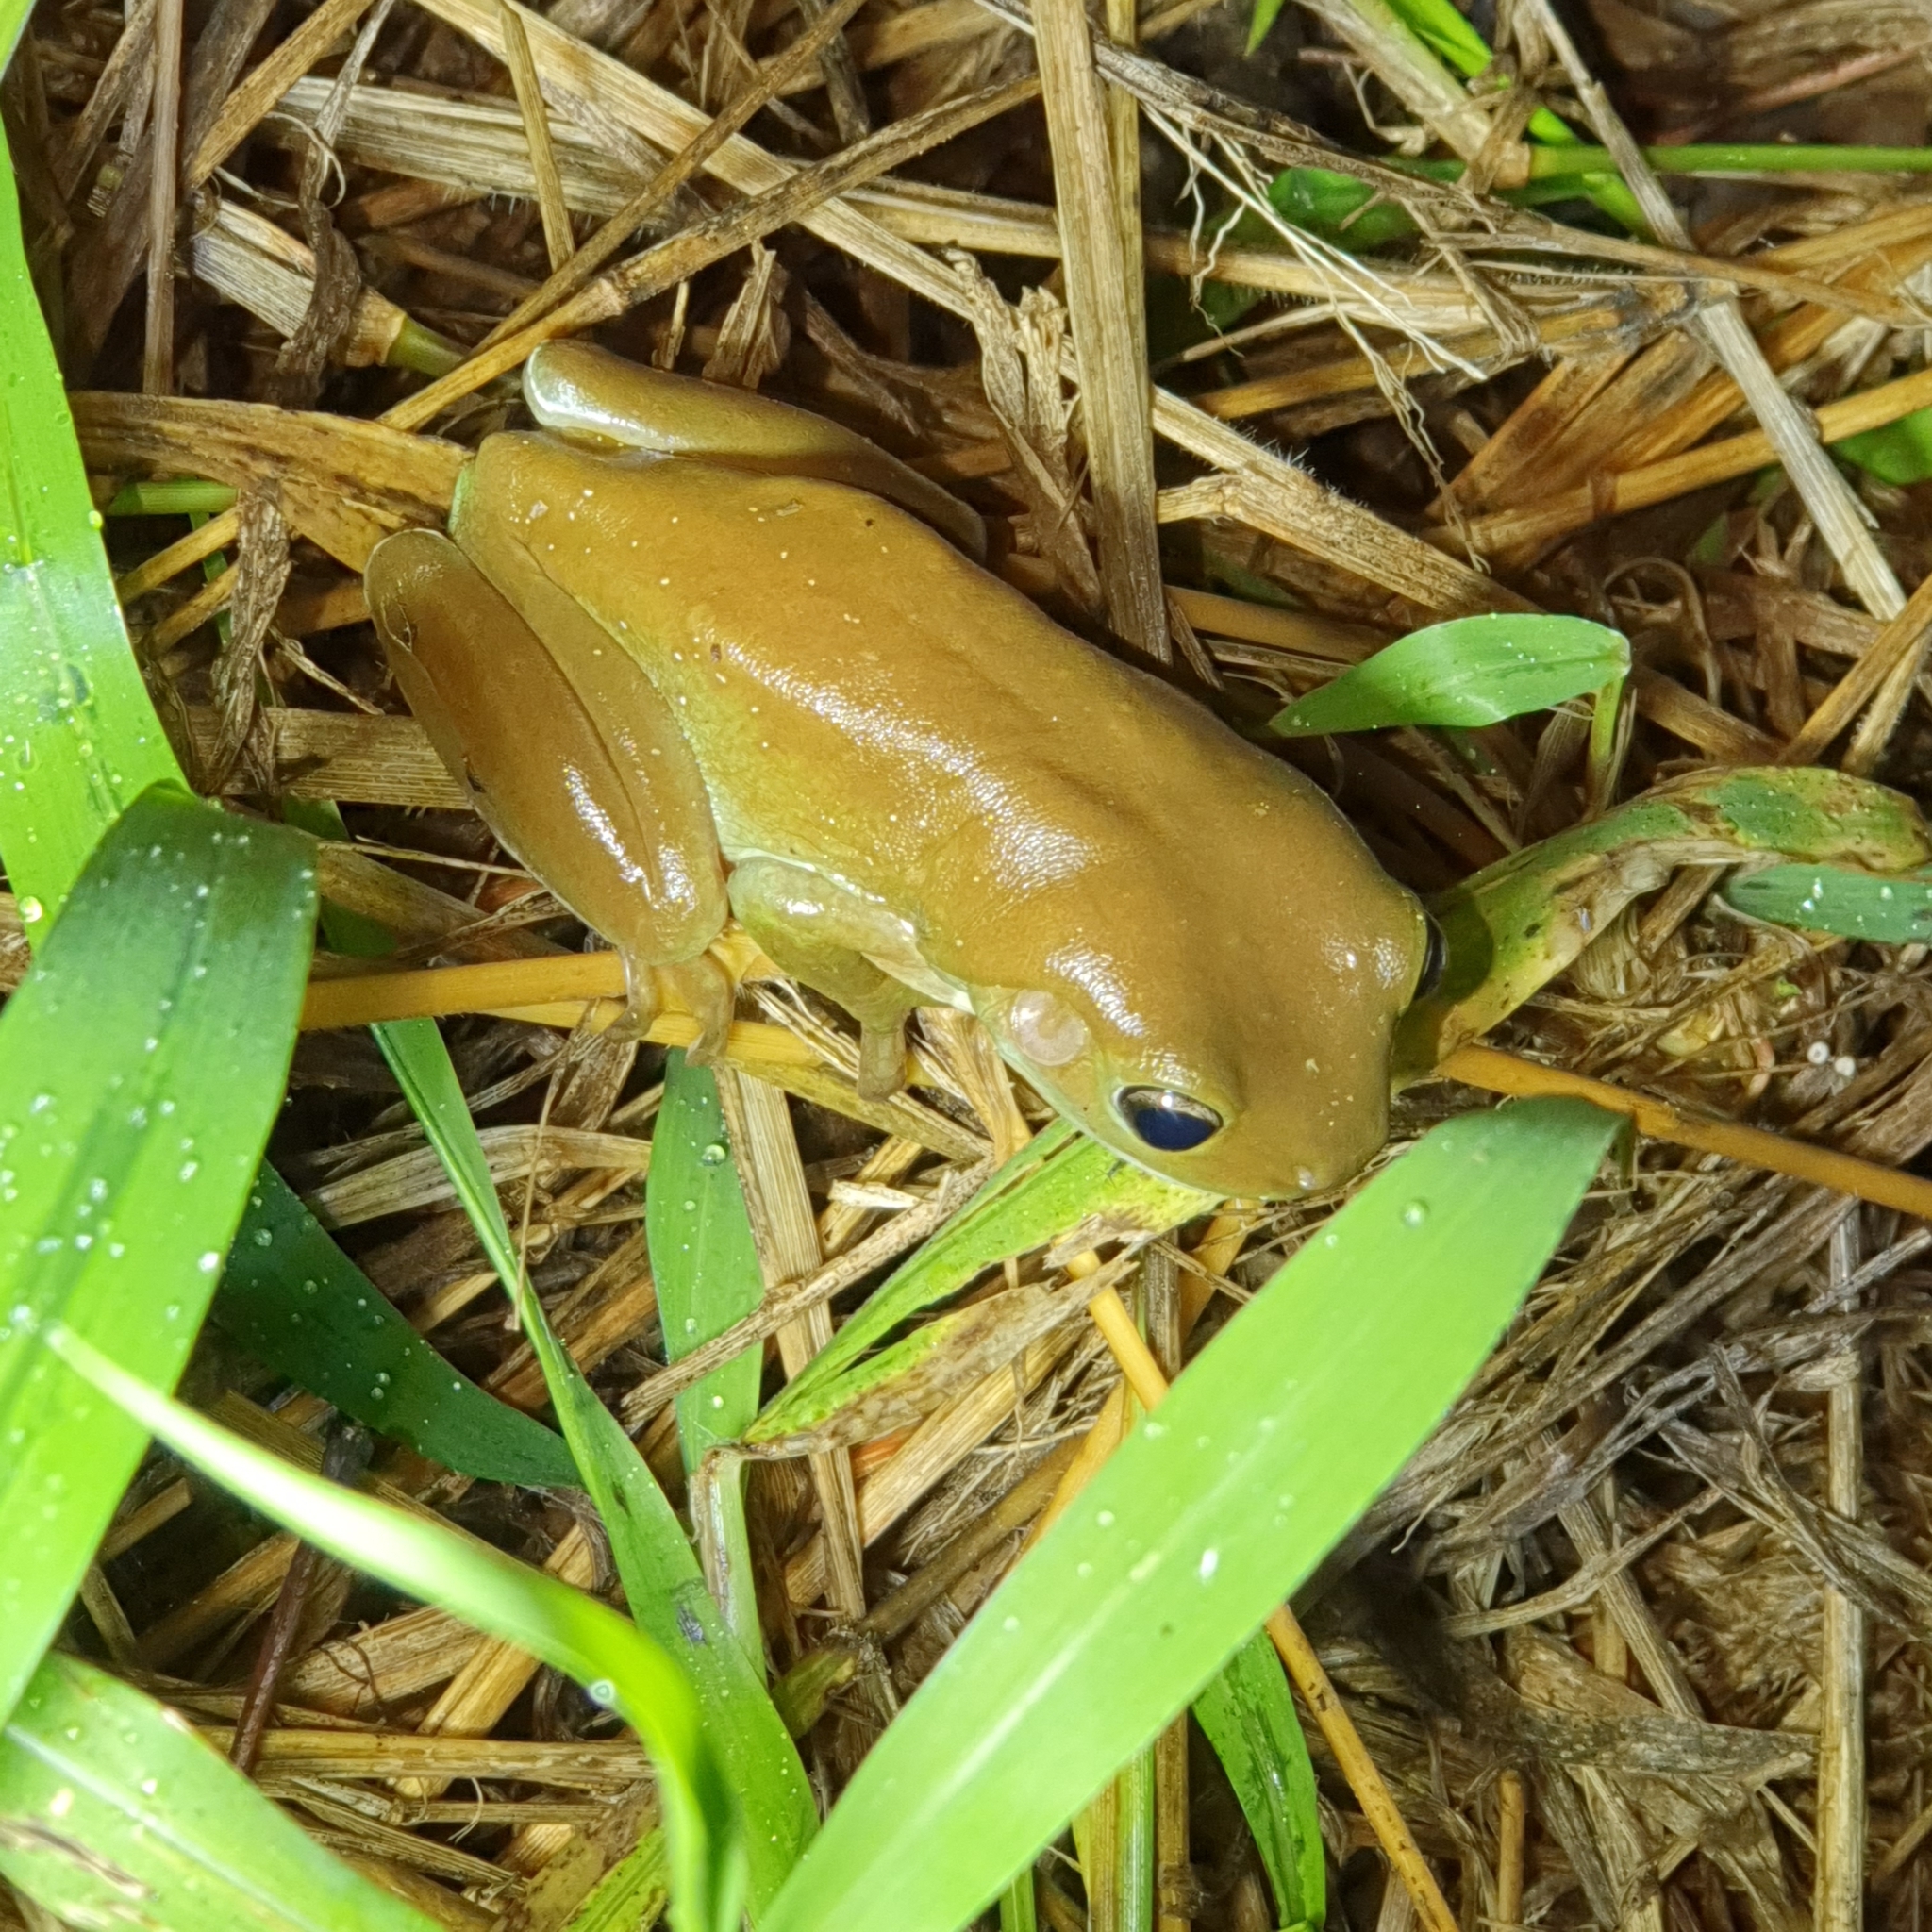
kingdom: Animalia
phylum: Chordata
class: Amphibia
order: Anura
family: Pelodryadidae
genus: Ranoidea
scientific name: Ranoidea caerulea
